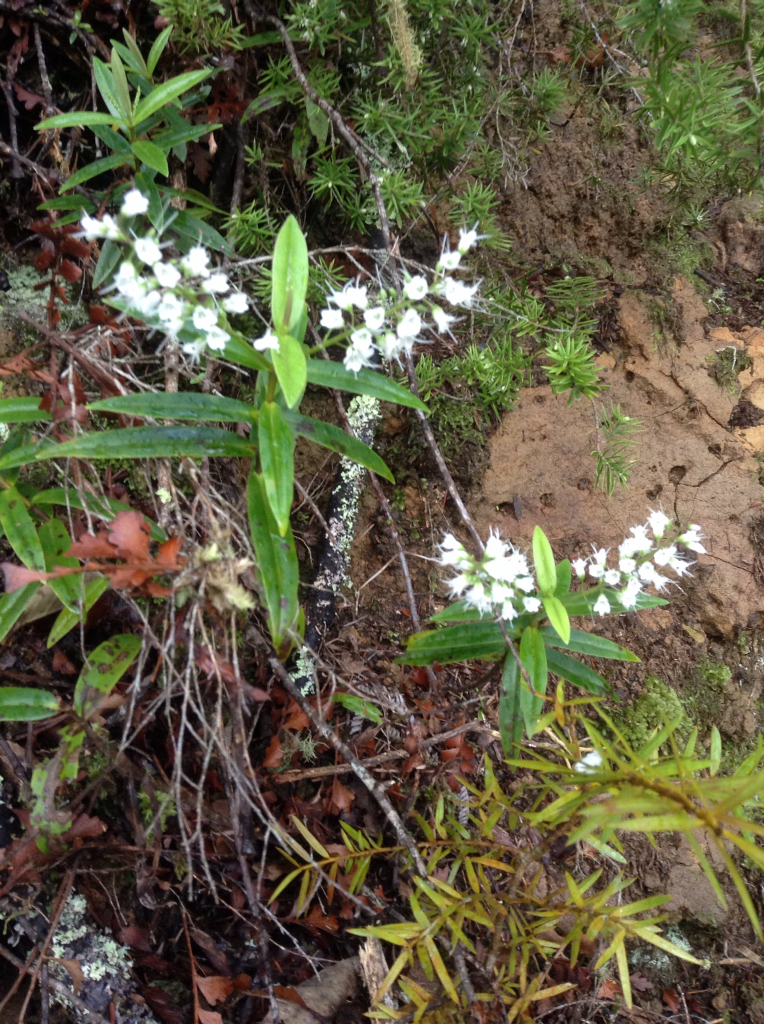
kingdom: Plantae
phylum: Tracheophyta
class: Magnoliopsida
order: Lamiales
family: Plantaginaceae
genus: Veronica
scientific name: Veronica macrocarpa
